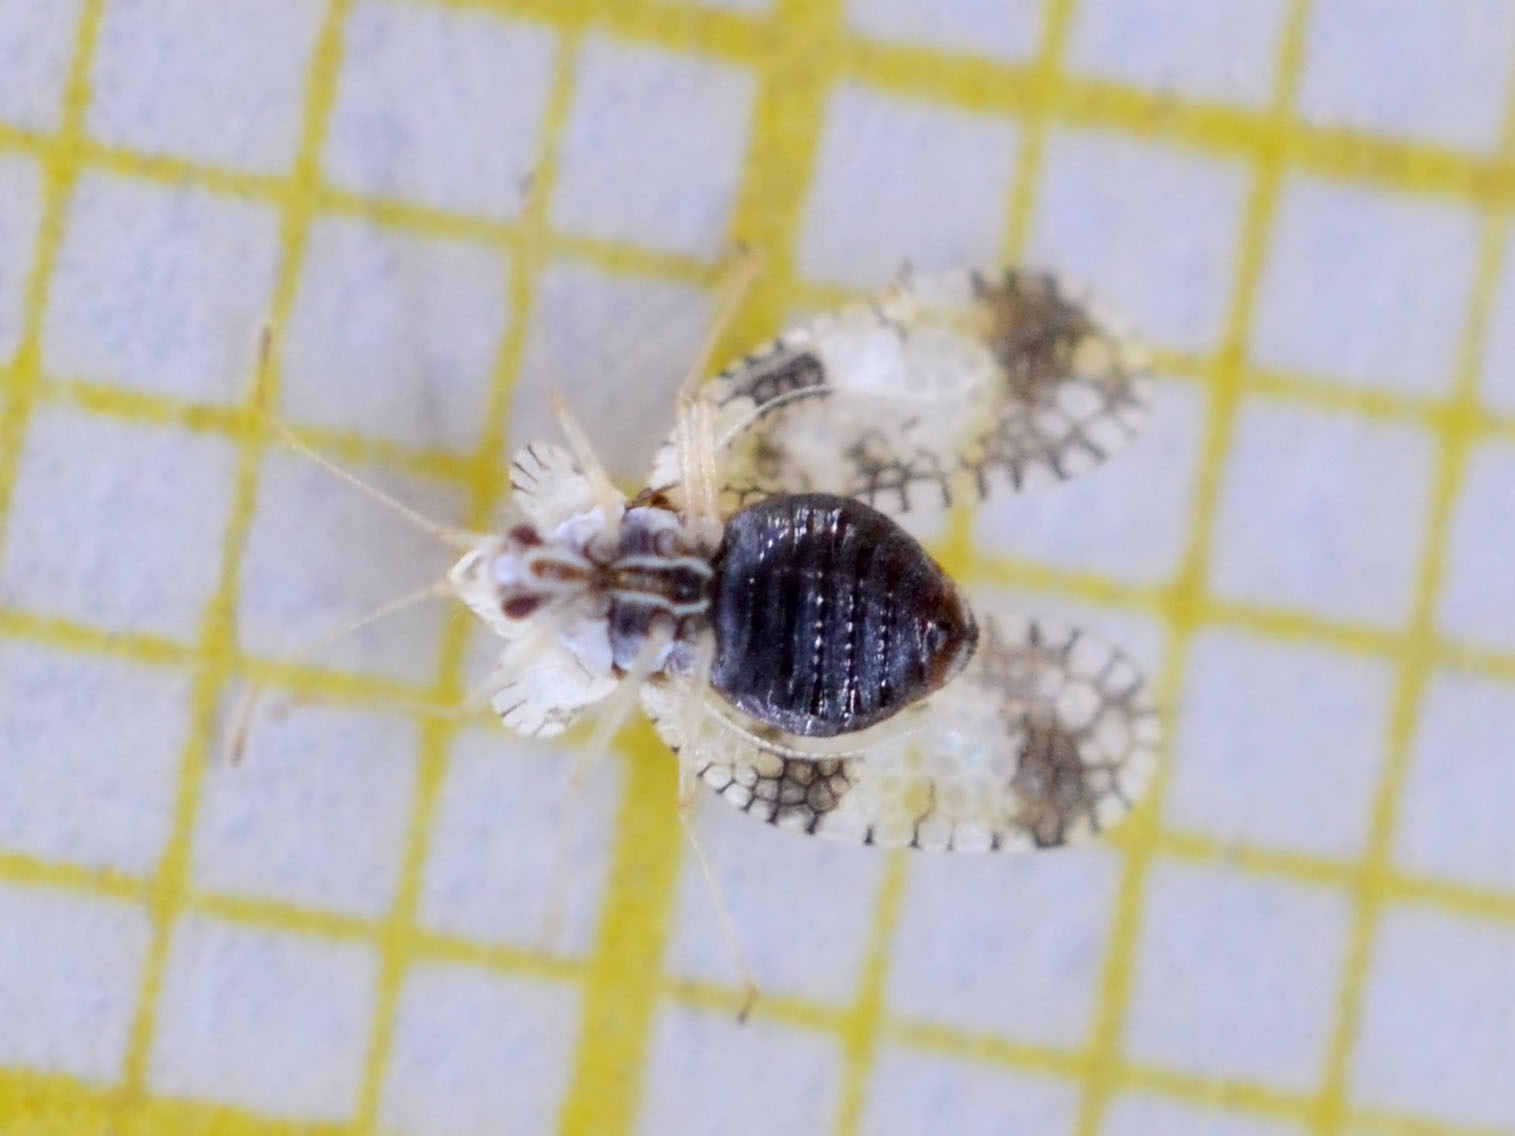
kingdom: Animalia
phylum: Arthropoda
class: Insecta
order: Hemiptera
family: Tingidae
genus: Stephanitis
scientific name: Stephanitis pyri
